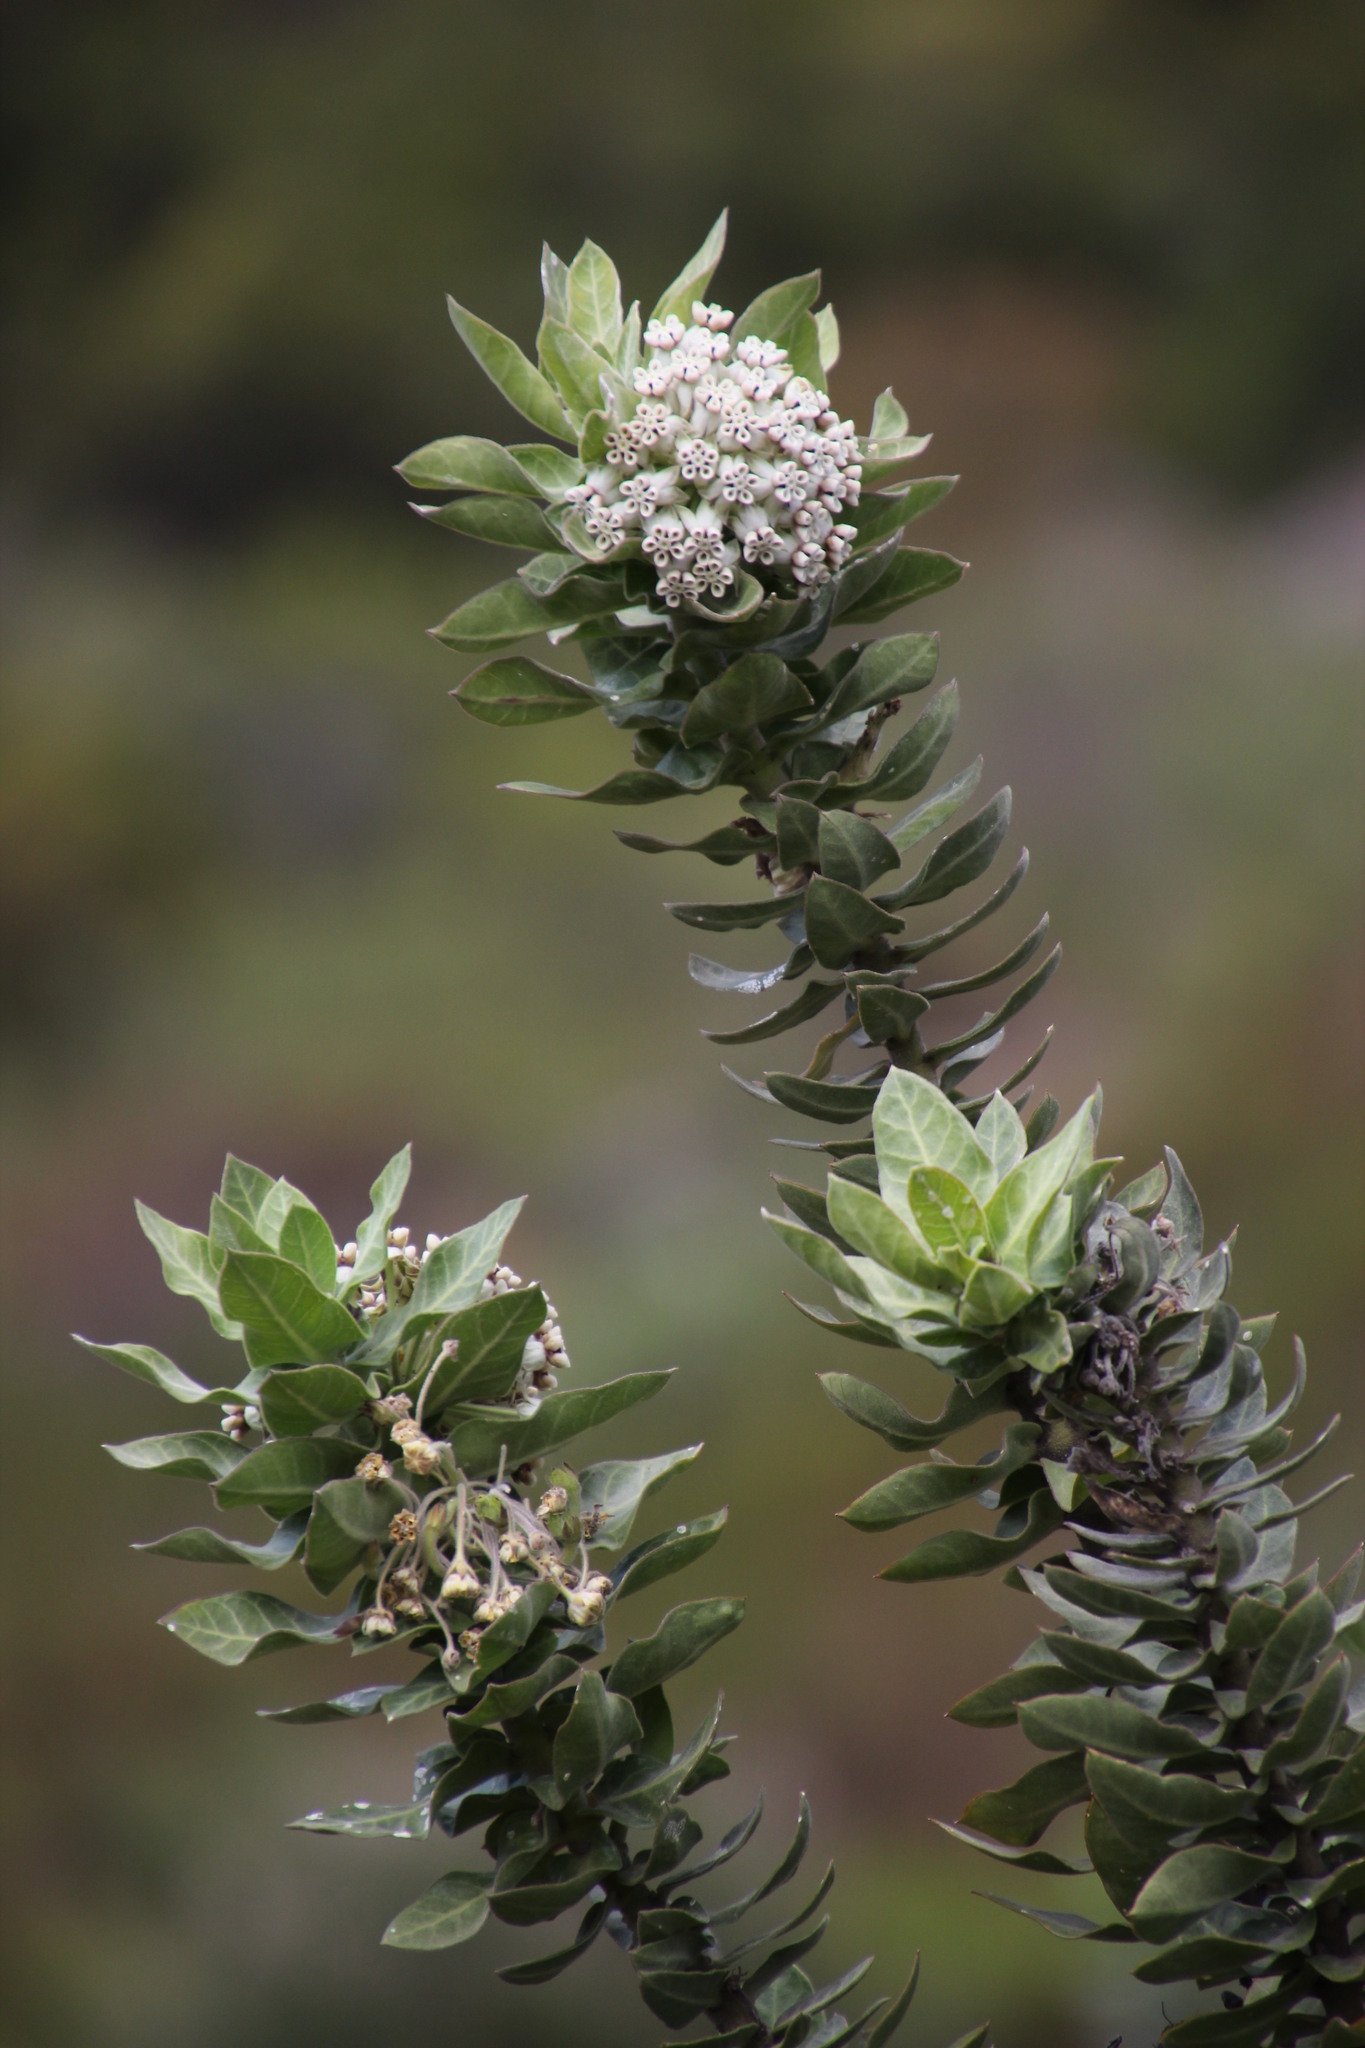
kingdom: Plantae
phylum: Tracheophyta
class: Magnoliopsida
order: Gentianales
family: Apocynaceae
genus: Gomphocarpus
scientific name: Gomphocarpus cancellatus
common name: Wild cotton
